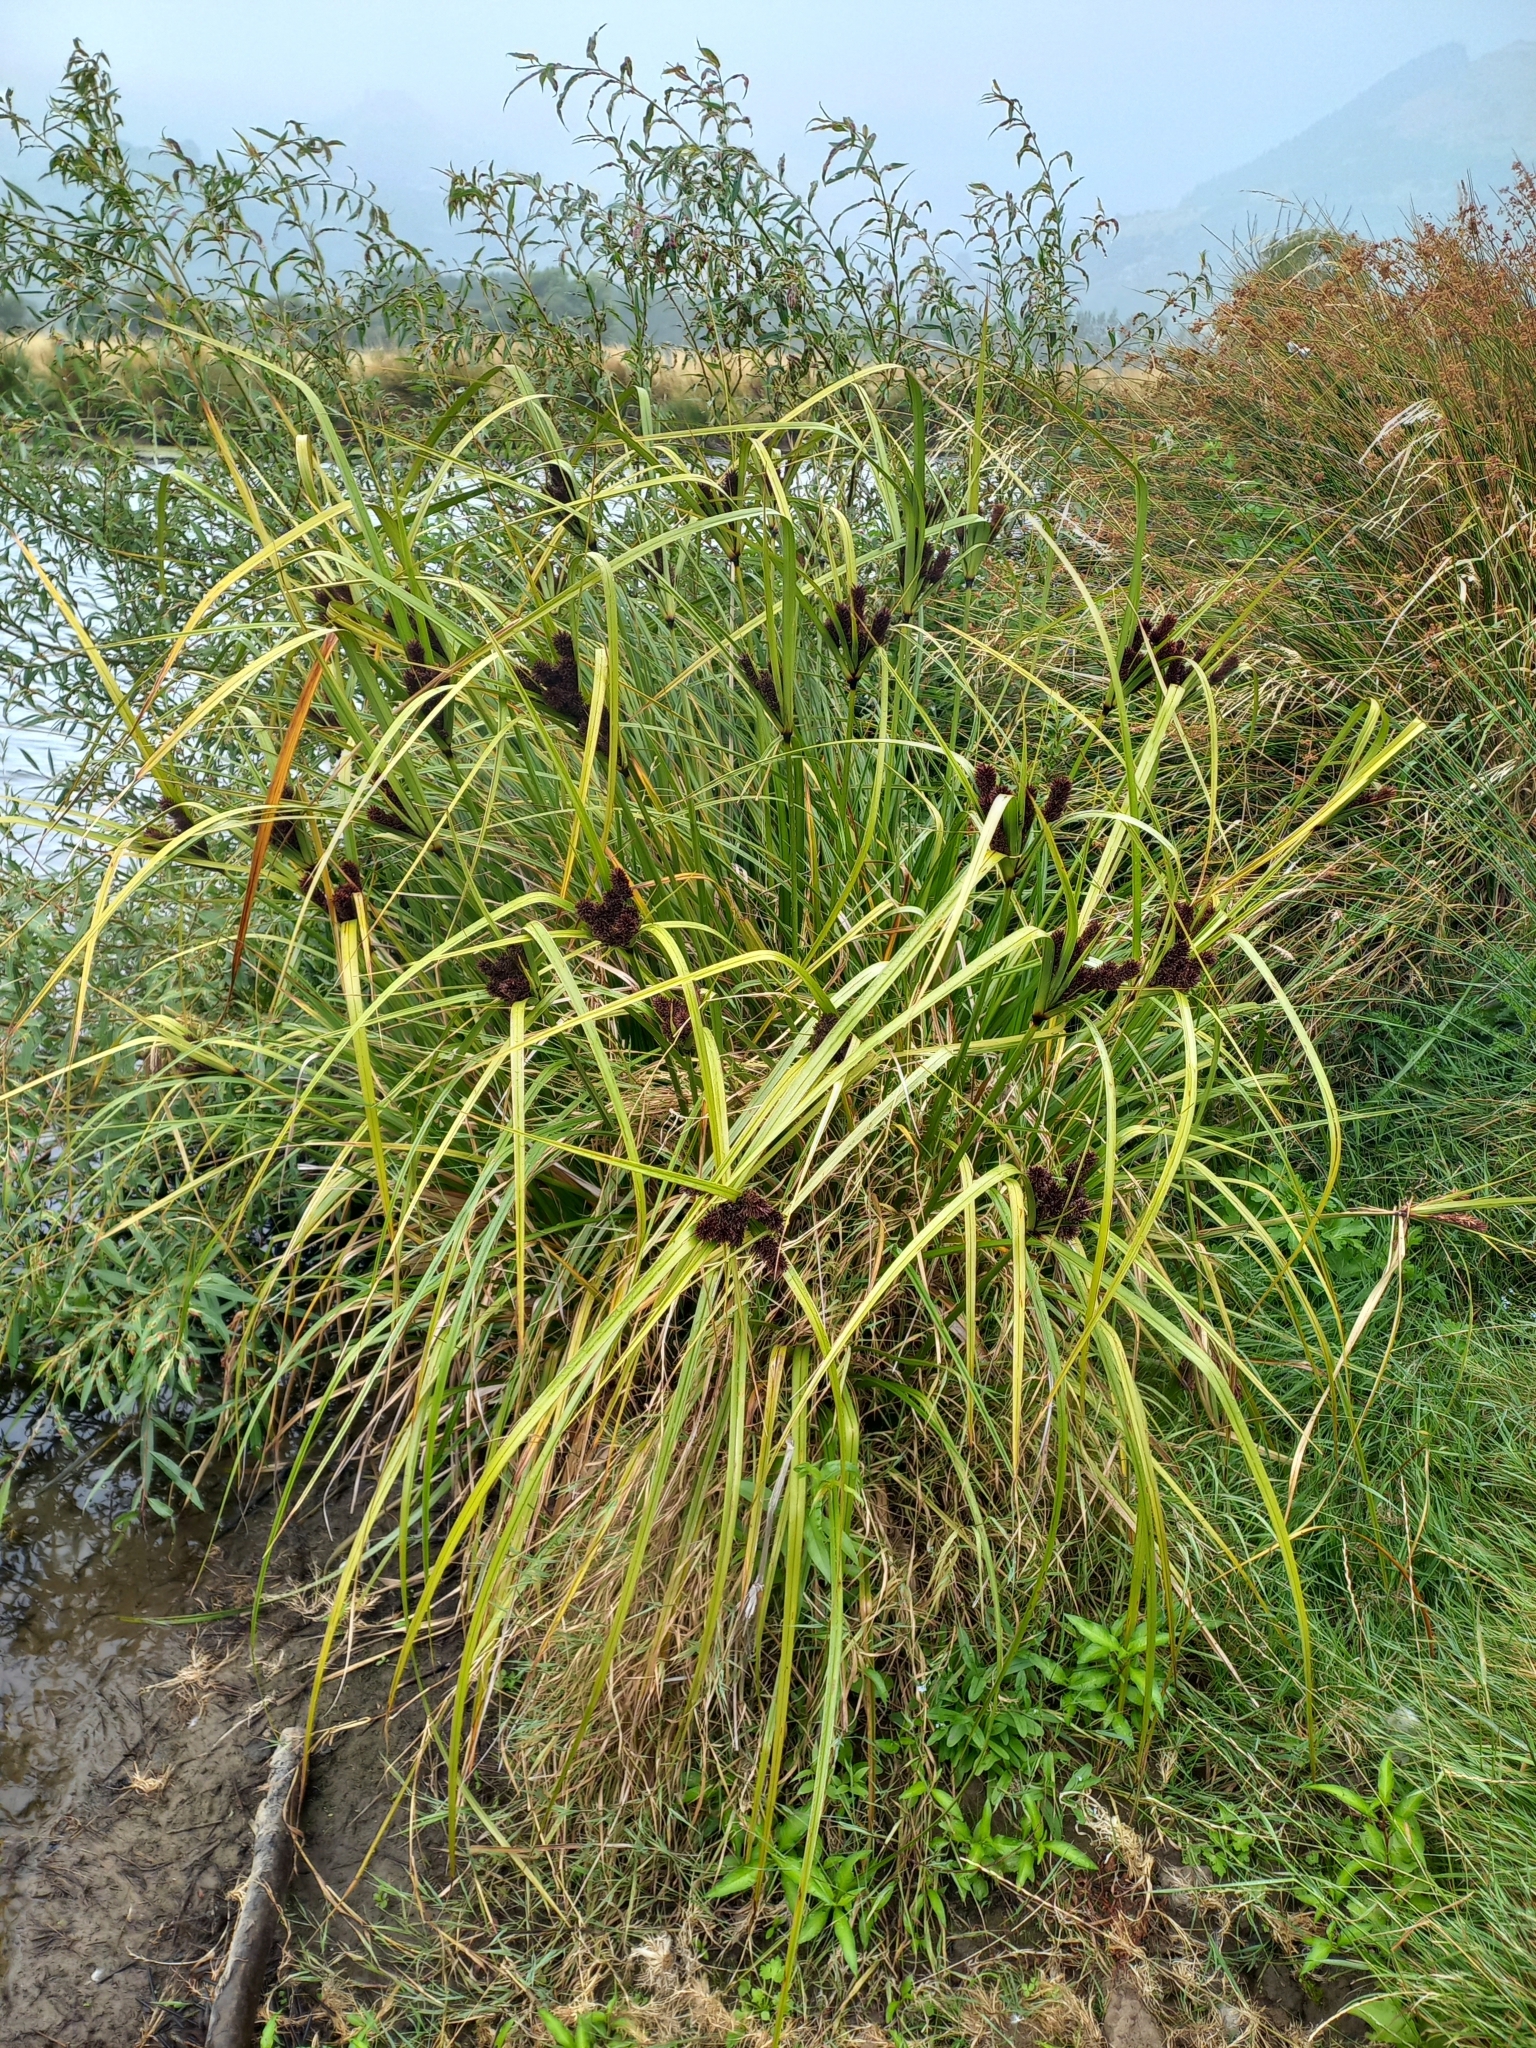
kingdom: Plantae
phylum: Tracheophyta
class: Liliopsida
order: Poales
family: Cyperaceae
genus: Cyperus
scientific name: Cyperus ustulatus
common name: Giant umbrella-sedge
